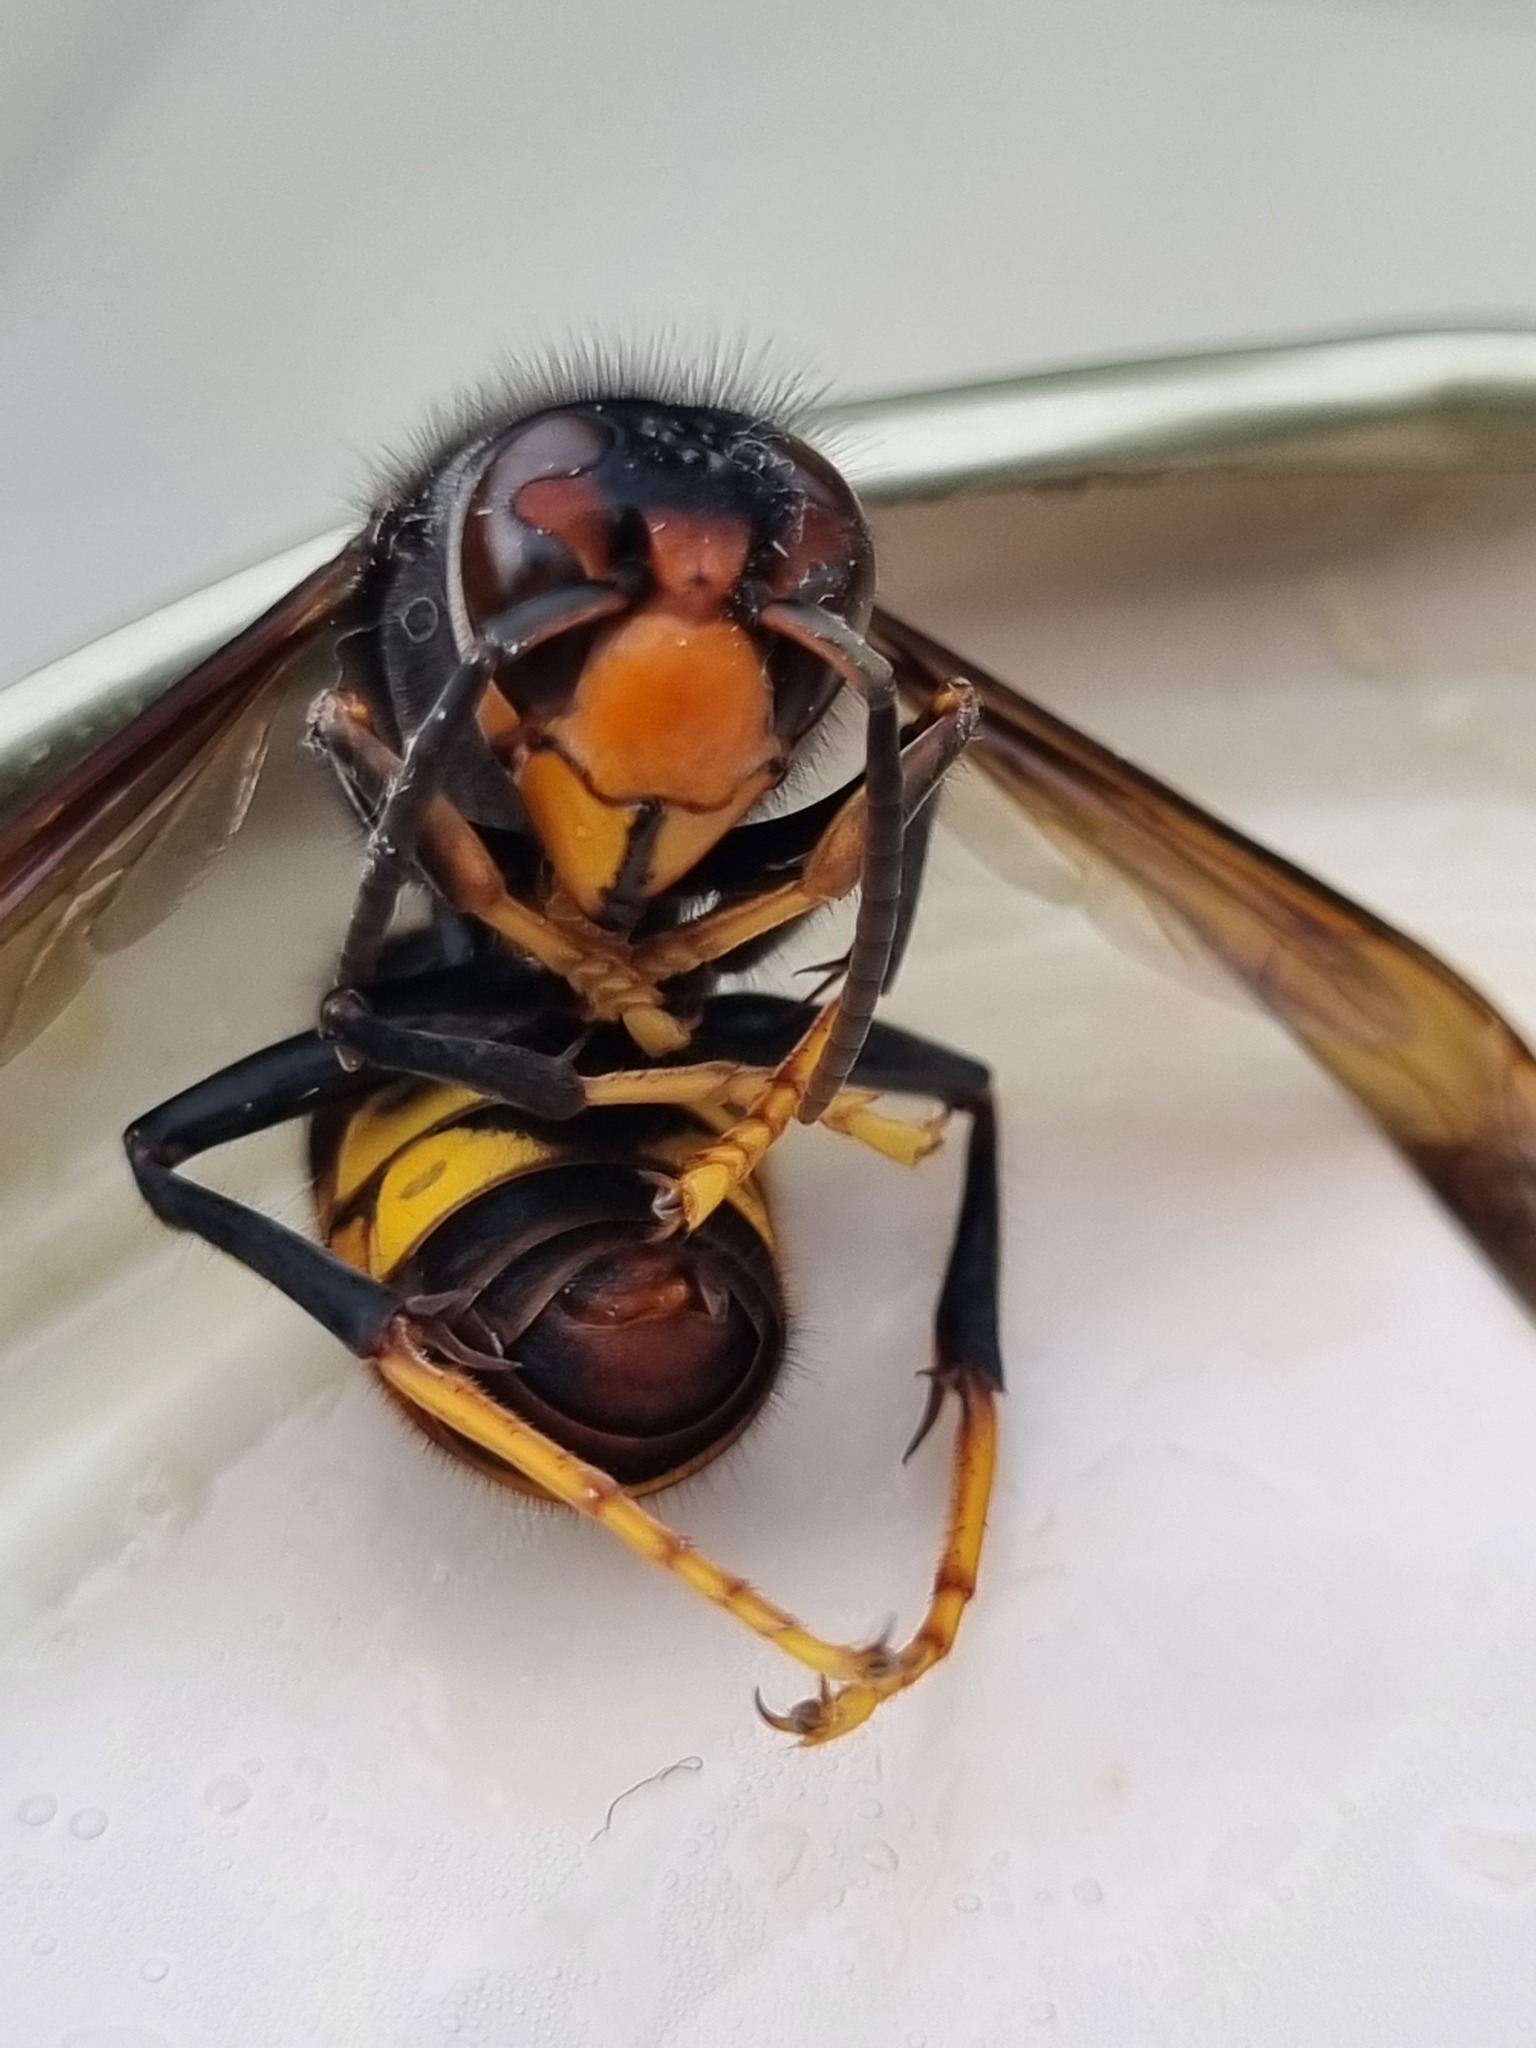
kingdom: Animalia
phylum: Arthropoda
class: Insecta
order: Hymenoptera
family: Vespidae
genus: Vespa
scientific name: Vespa velutina
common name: Asian hornet
